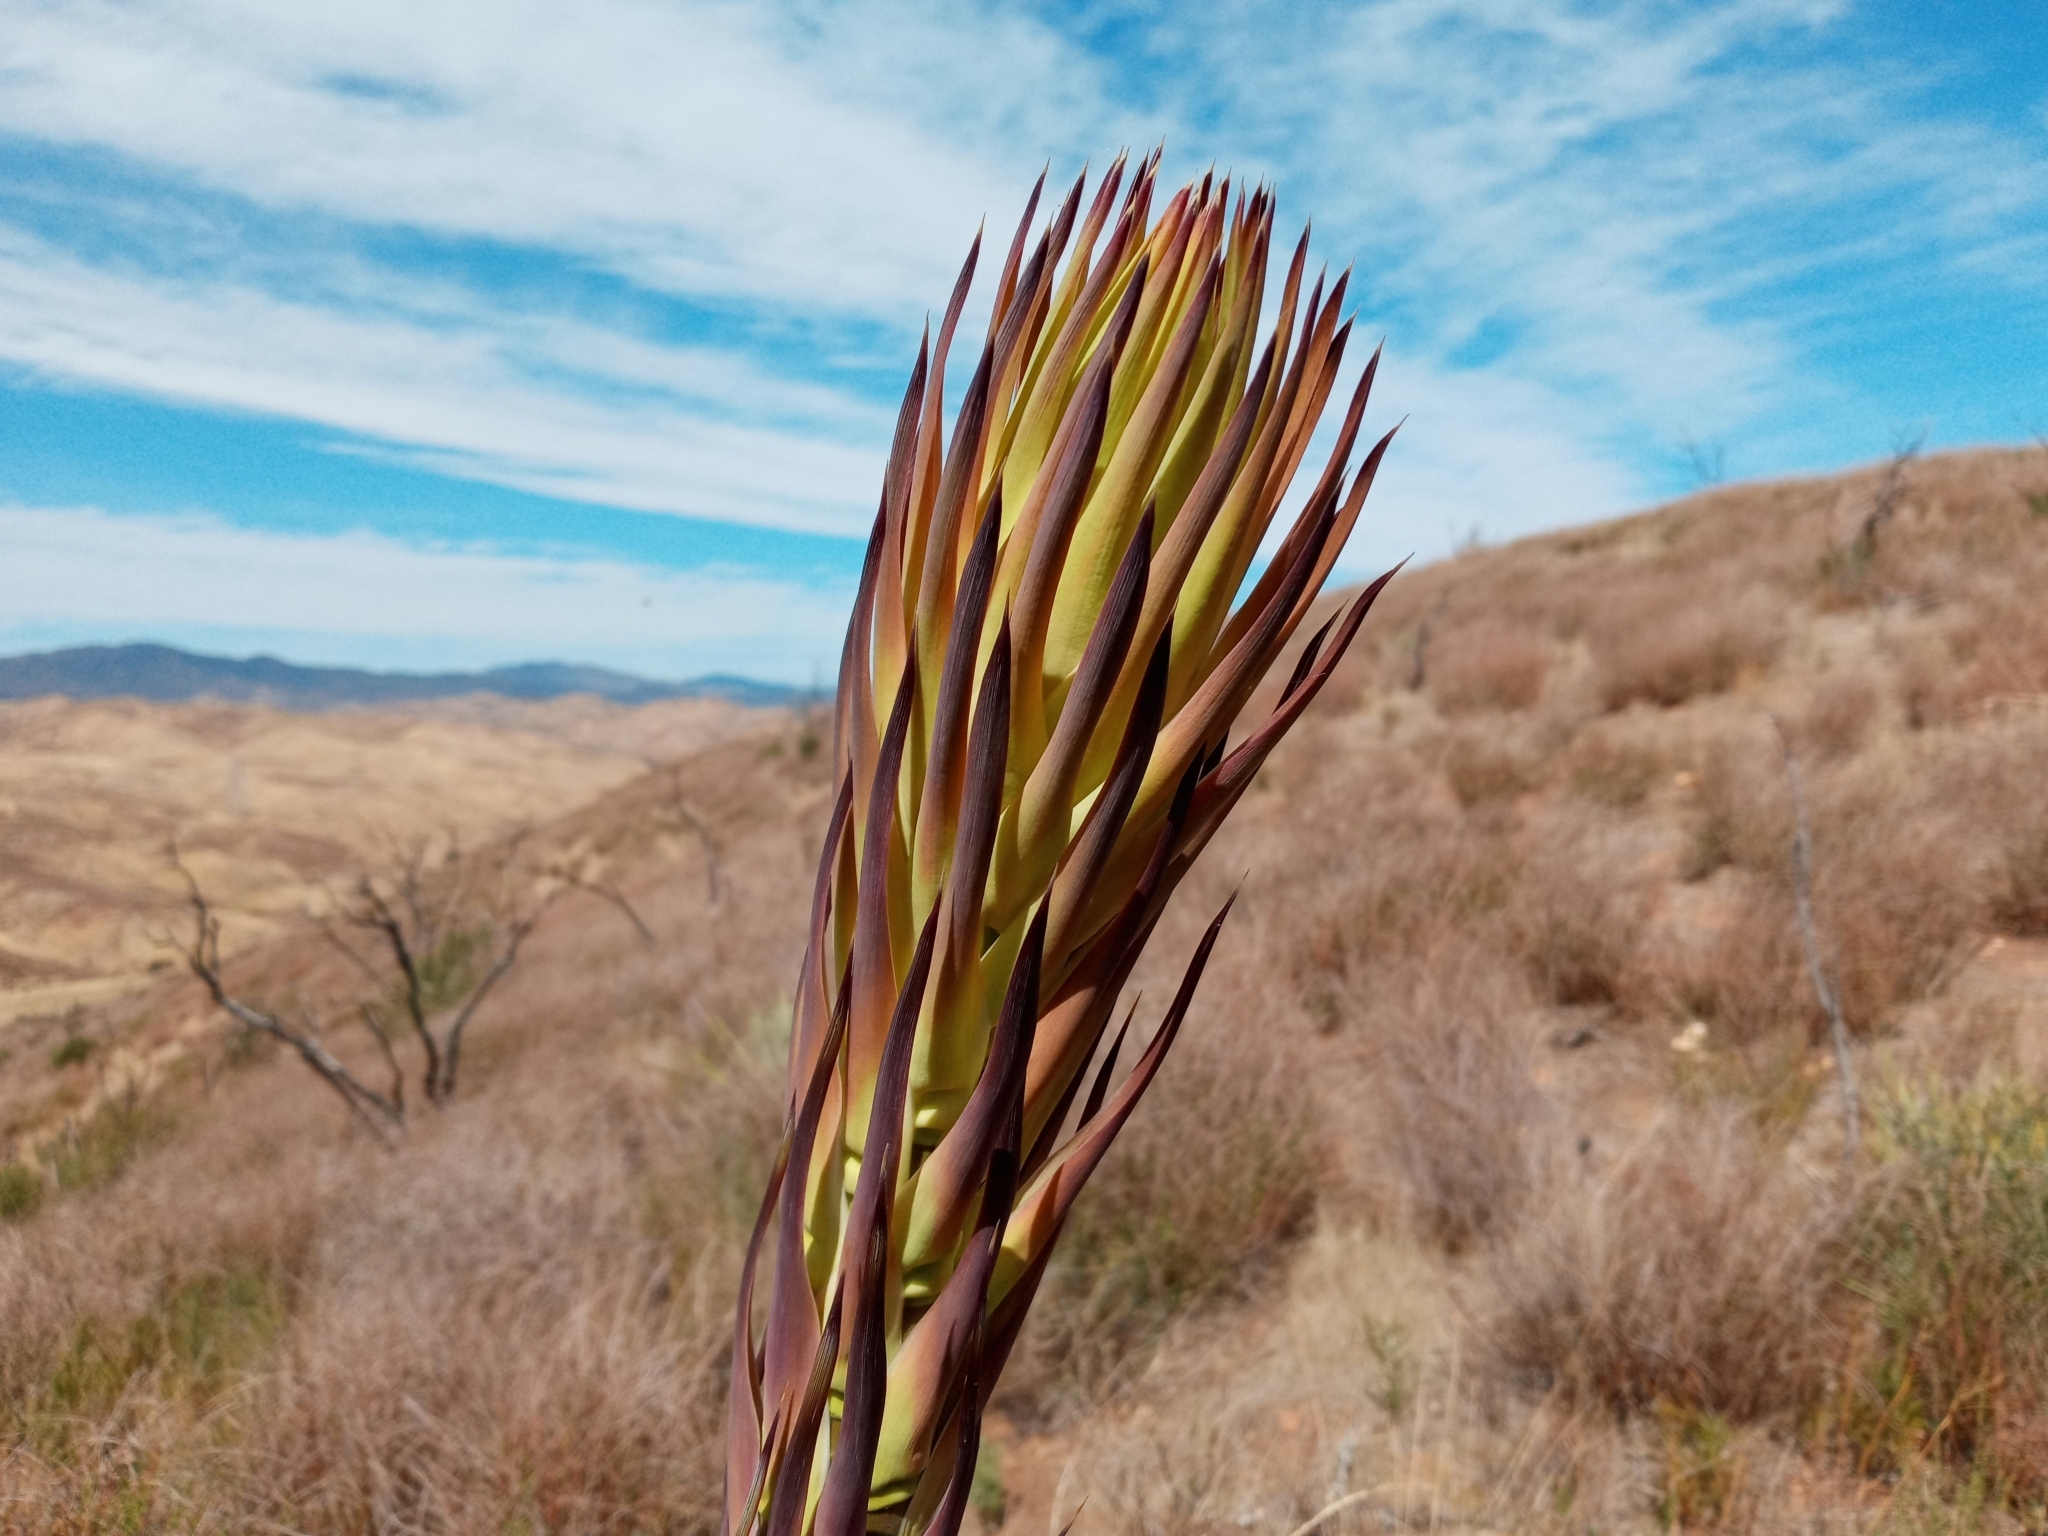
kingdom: Plantae
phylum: Tracheophyta
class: Liliopsida
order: Asparagales
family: Asparagaceae
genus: Hesperoyucca
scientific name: Hesperoyucca whipplei
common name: Our lord's-candle
